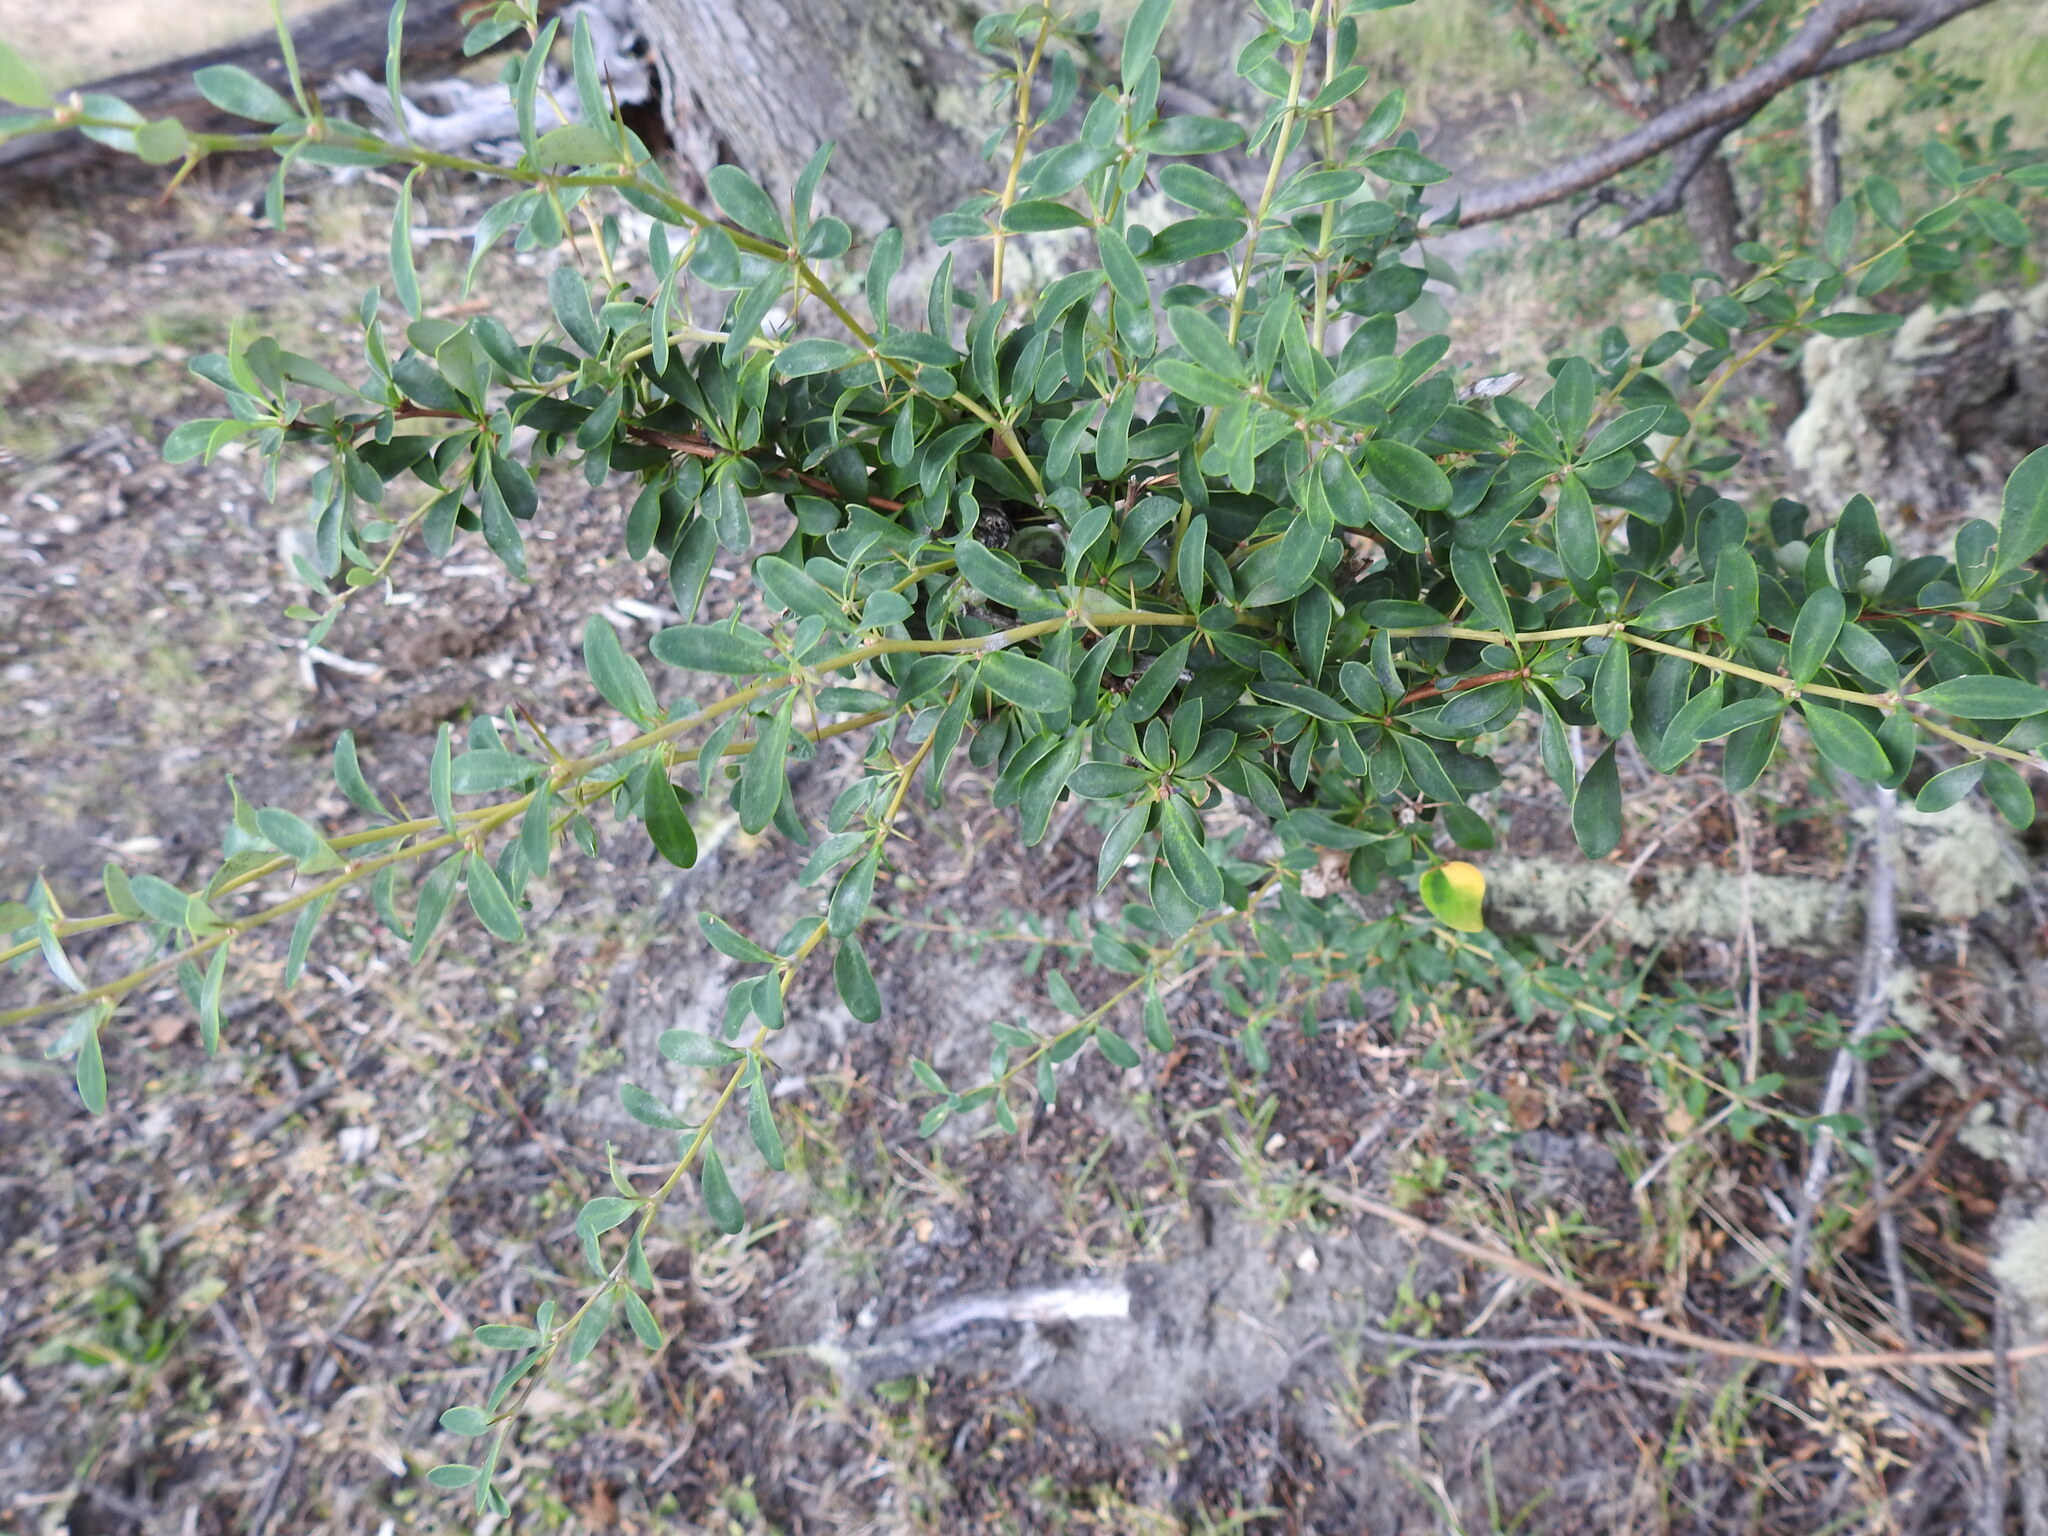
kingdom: Plantae
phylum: Tracheophyta
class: Magnoliopsida
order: Ranunculales
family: Berberidaceae
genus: Berberis
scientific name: Berberis microphylla
